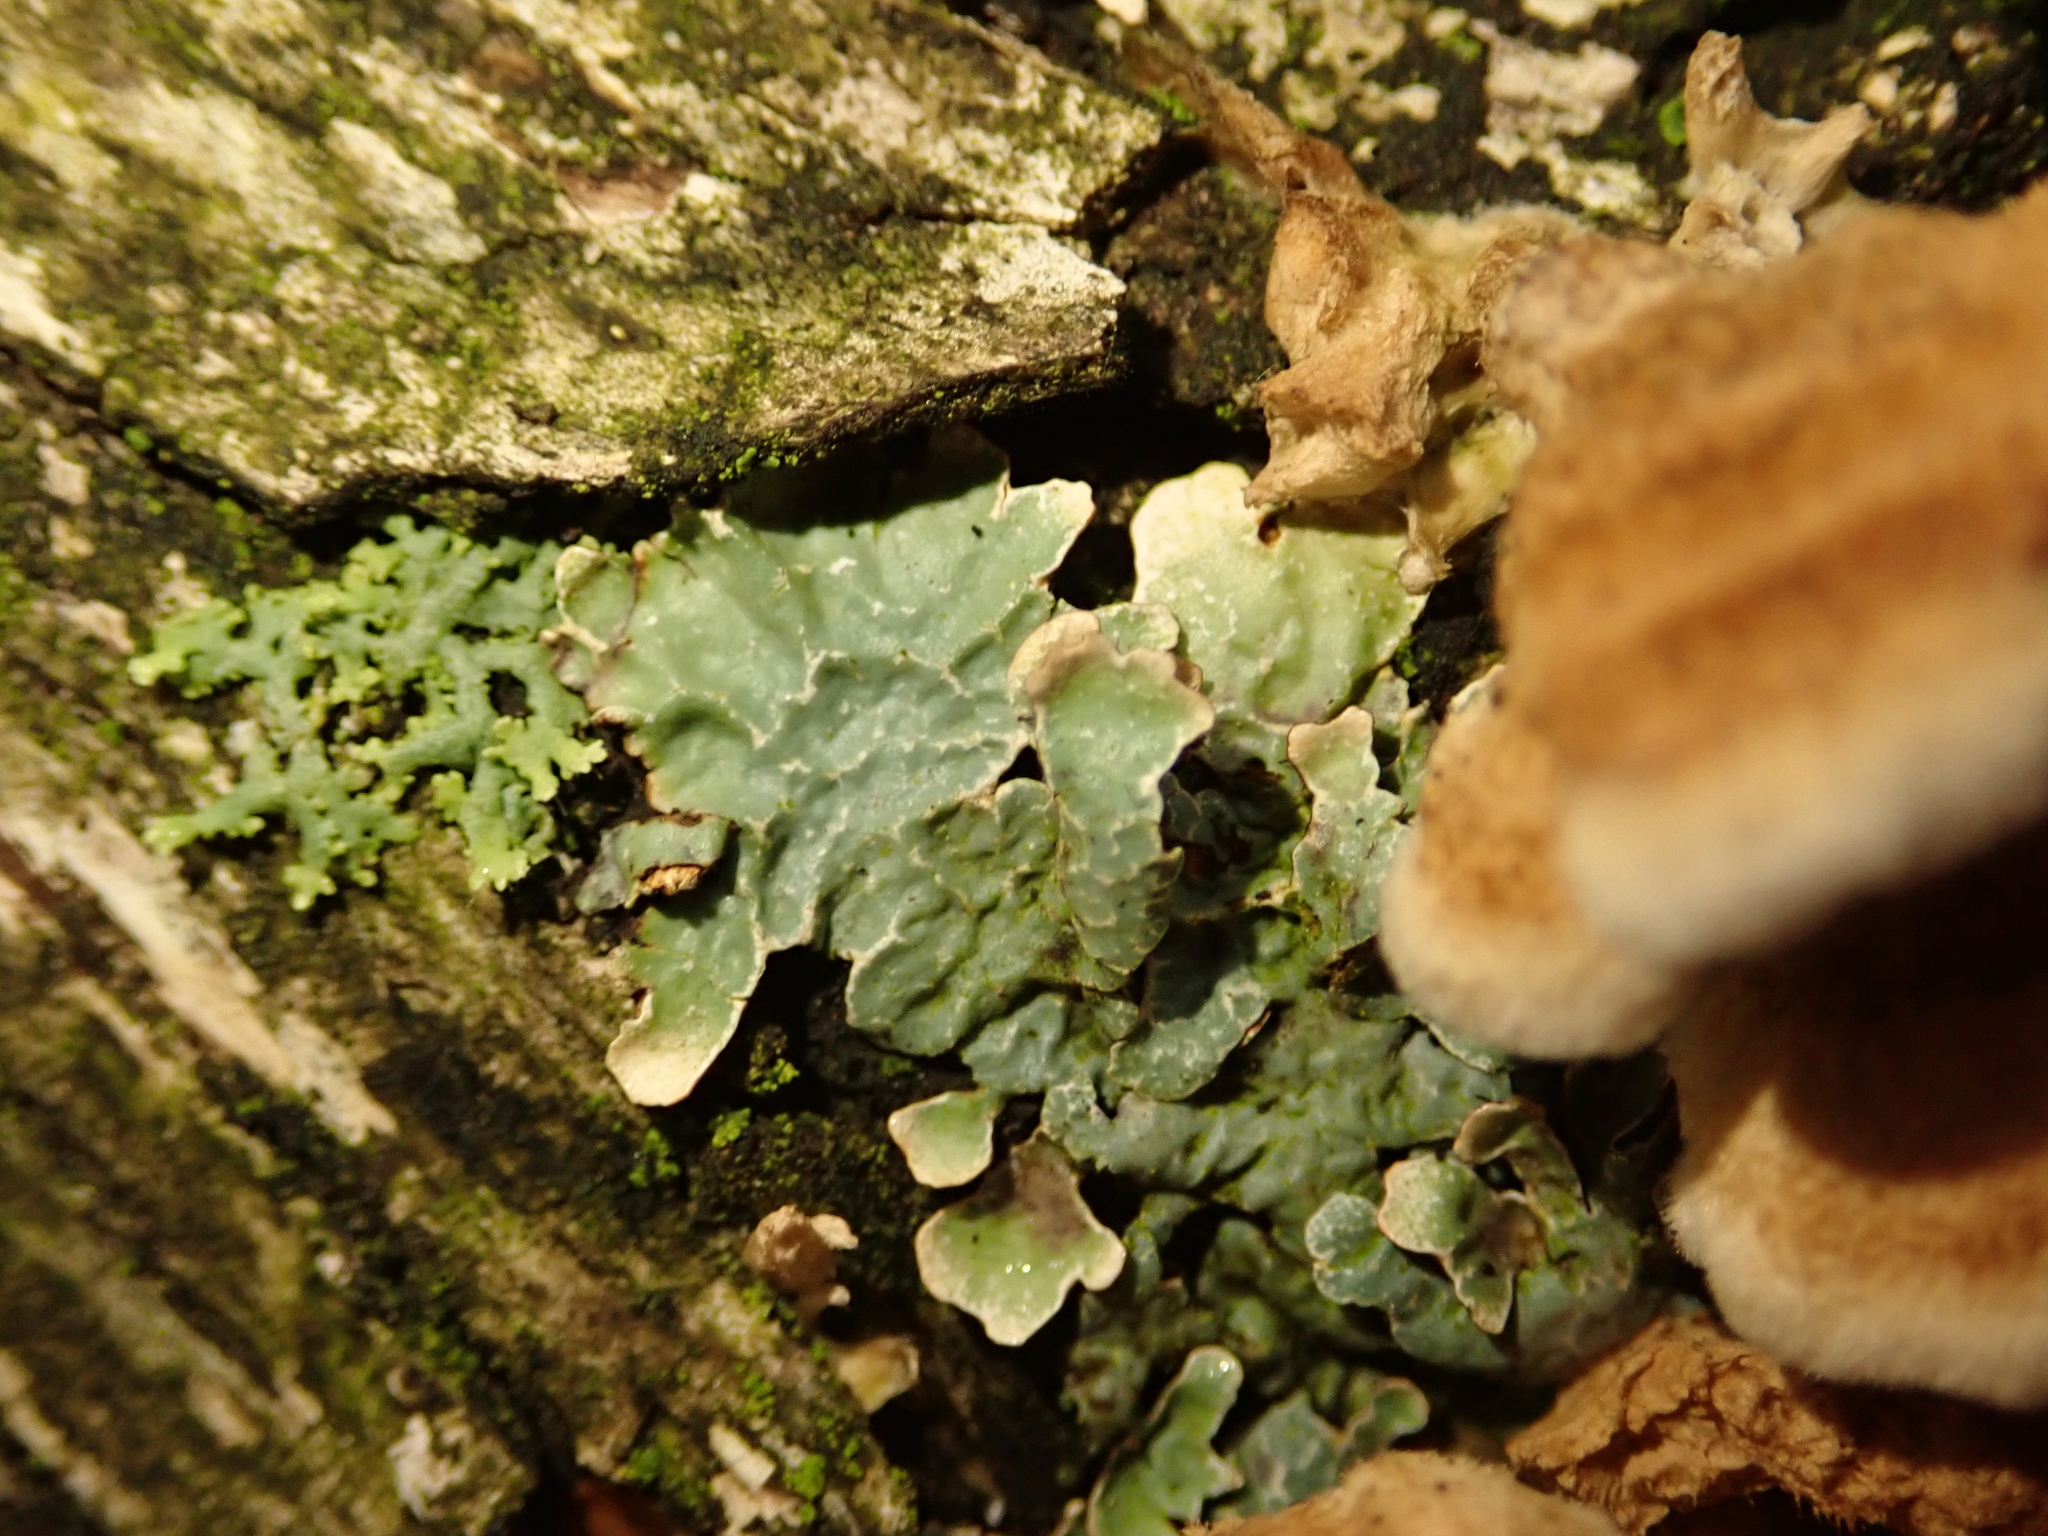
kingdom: Fungi
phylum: Ascomycota
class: Lecanoromycetes
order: Lecanorales
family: Parmeliaceae
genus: Parmelia
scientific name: Parmelia sulcata
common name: Netted shield lichen
